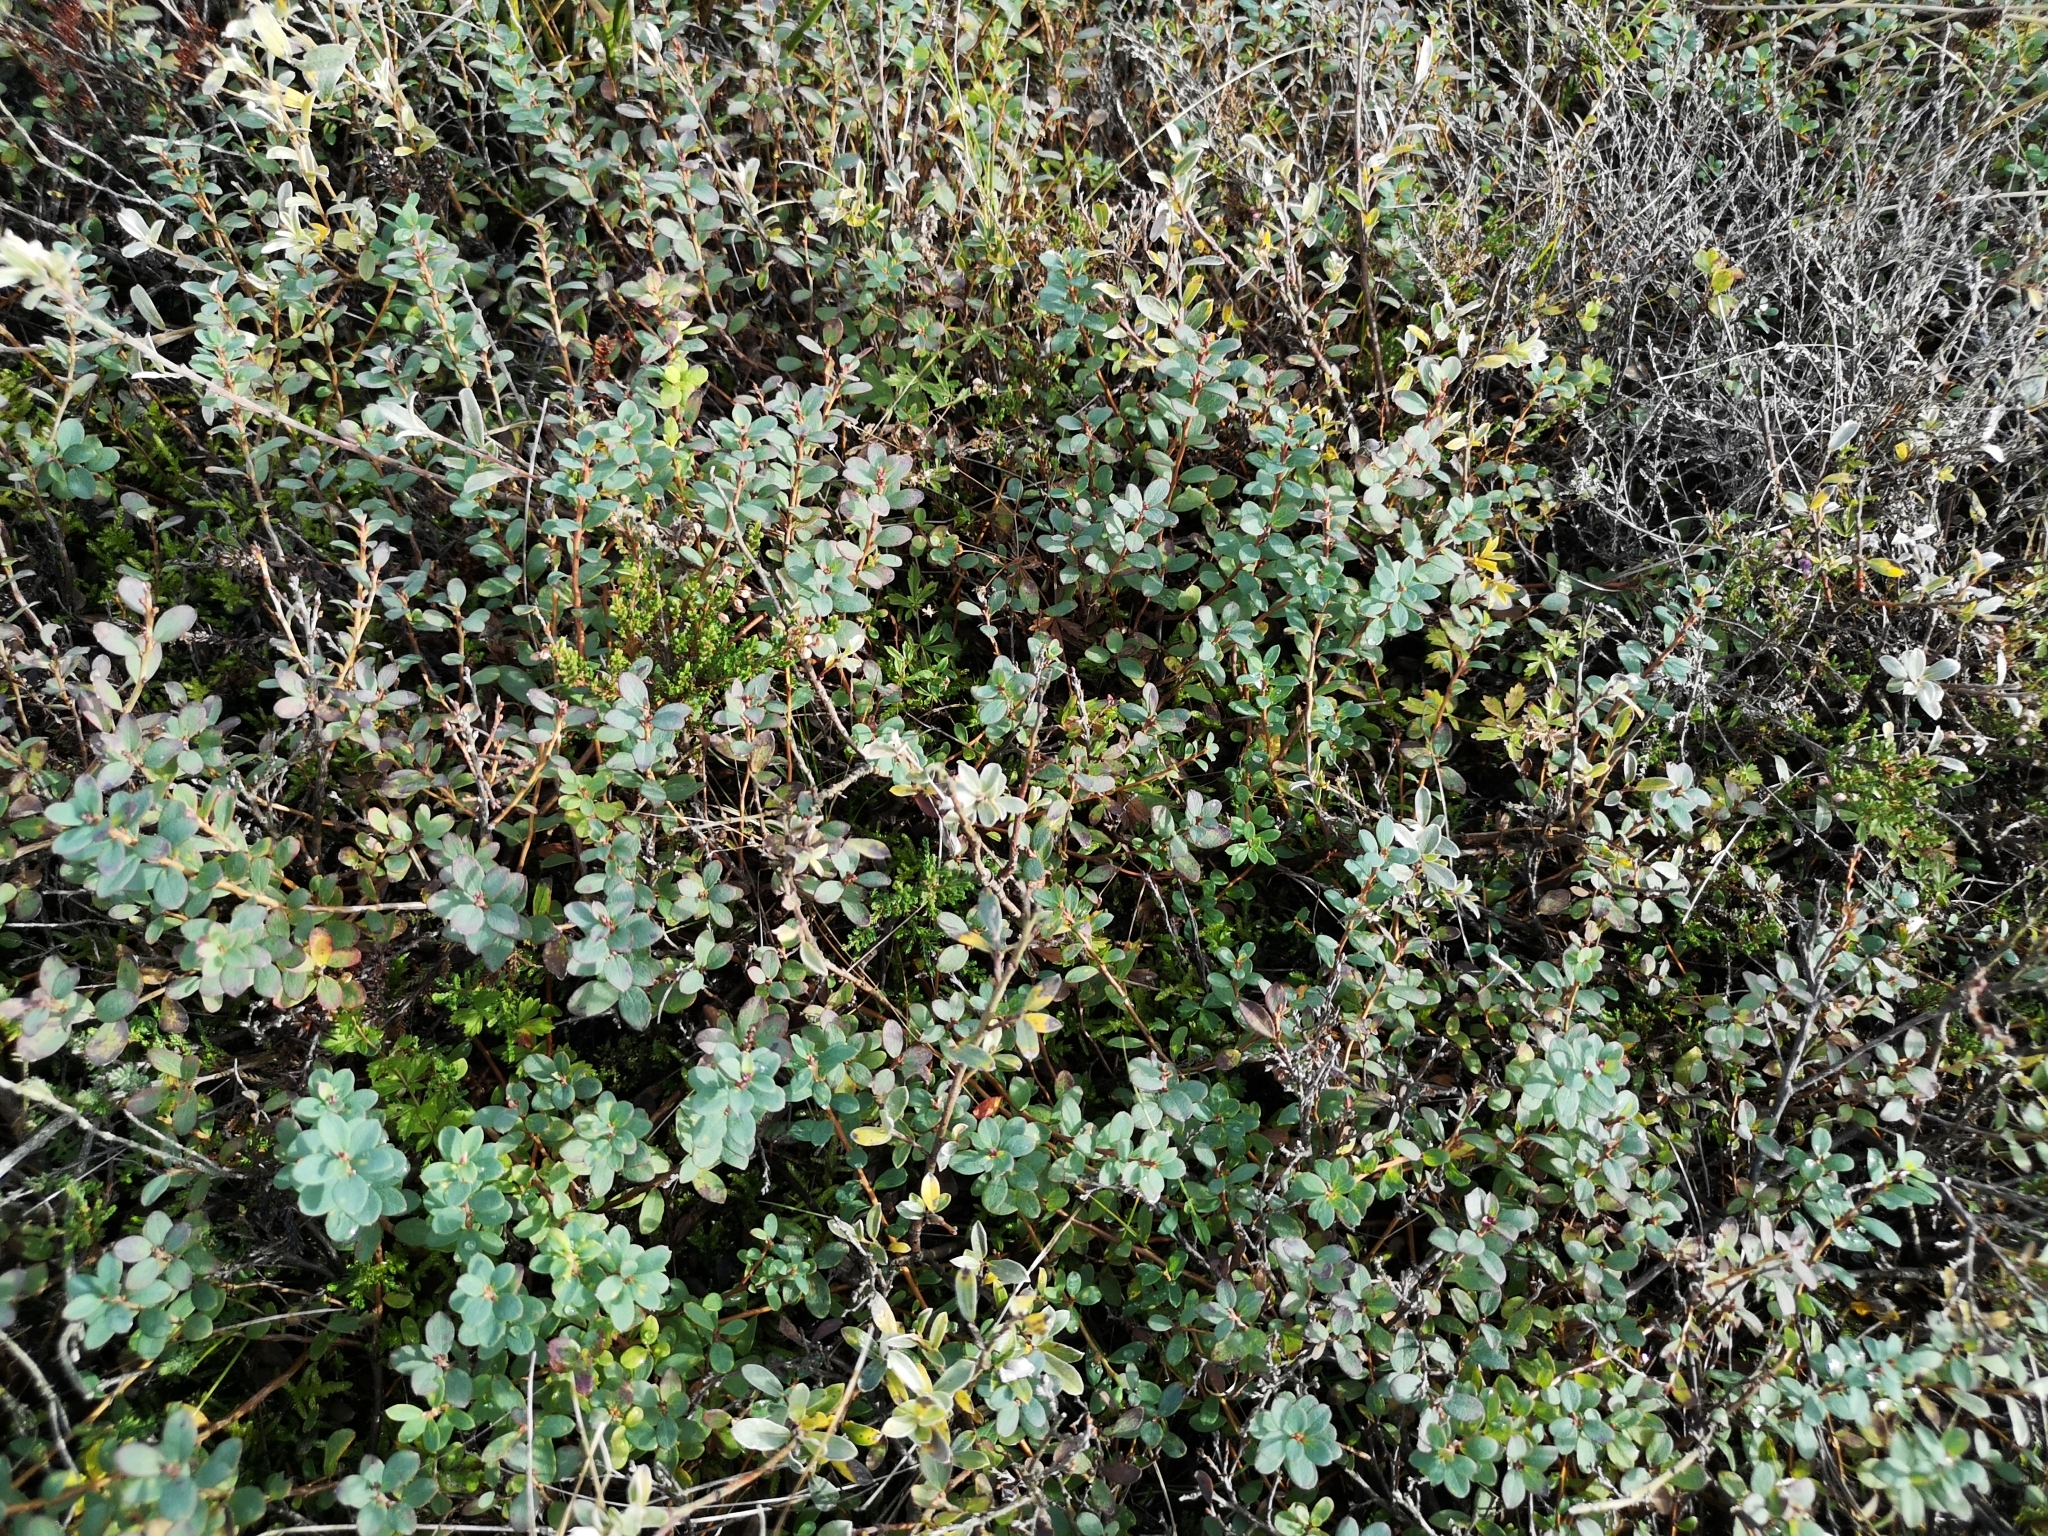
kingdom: Plantae
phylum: Tracheophyta
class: Magnoliopsida
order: Ericales
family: Ericaceae
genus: Vaccinium
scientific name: Vaccinium uliginosum
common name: Bog bilberry
